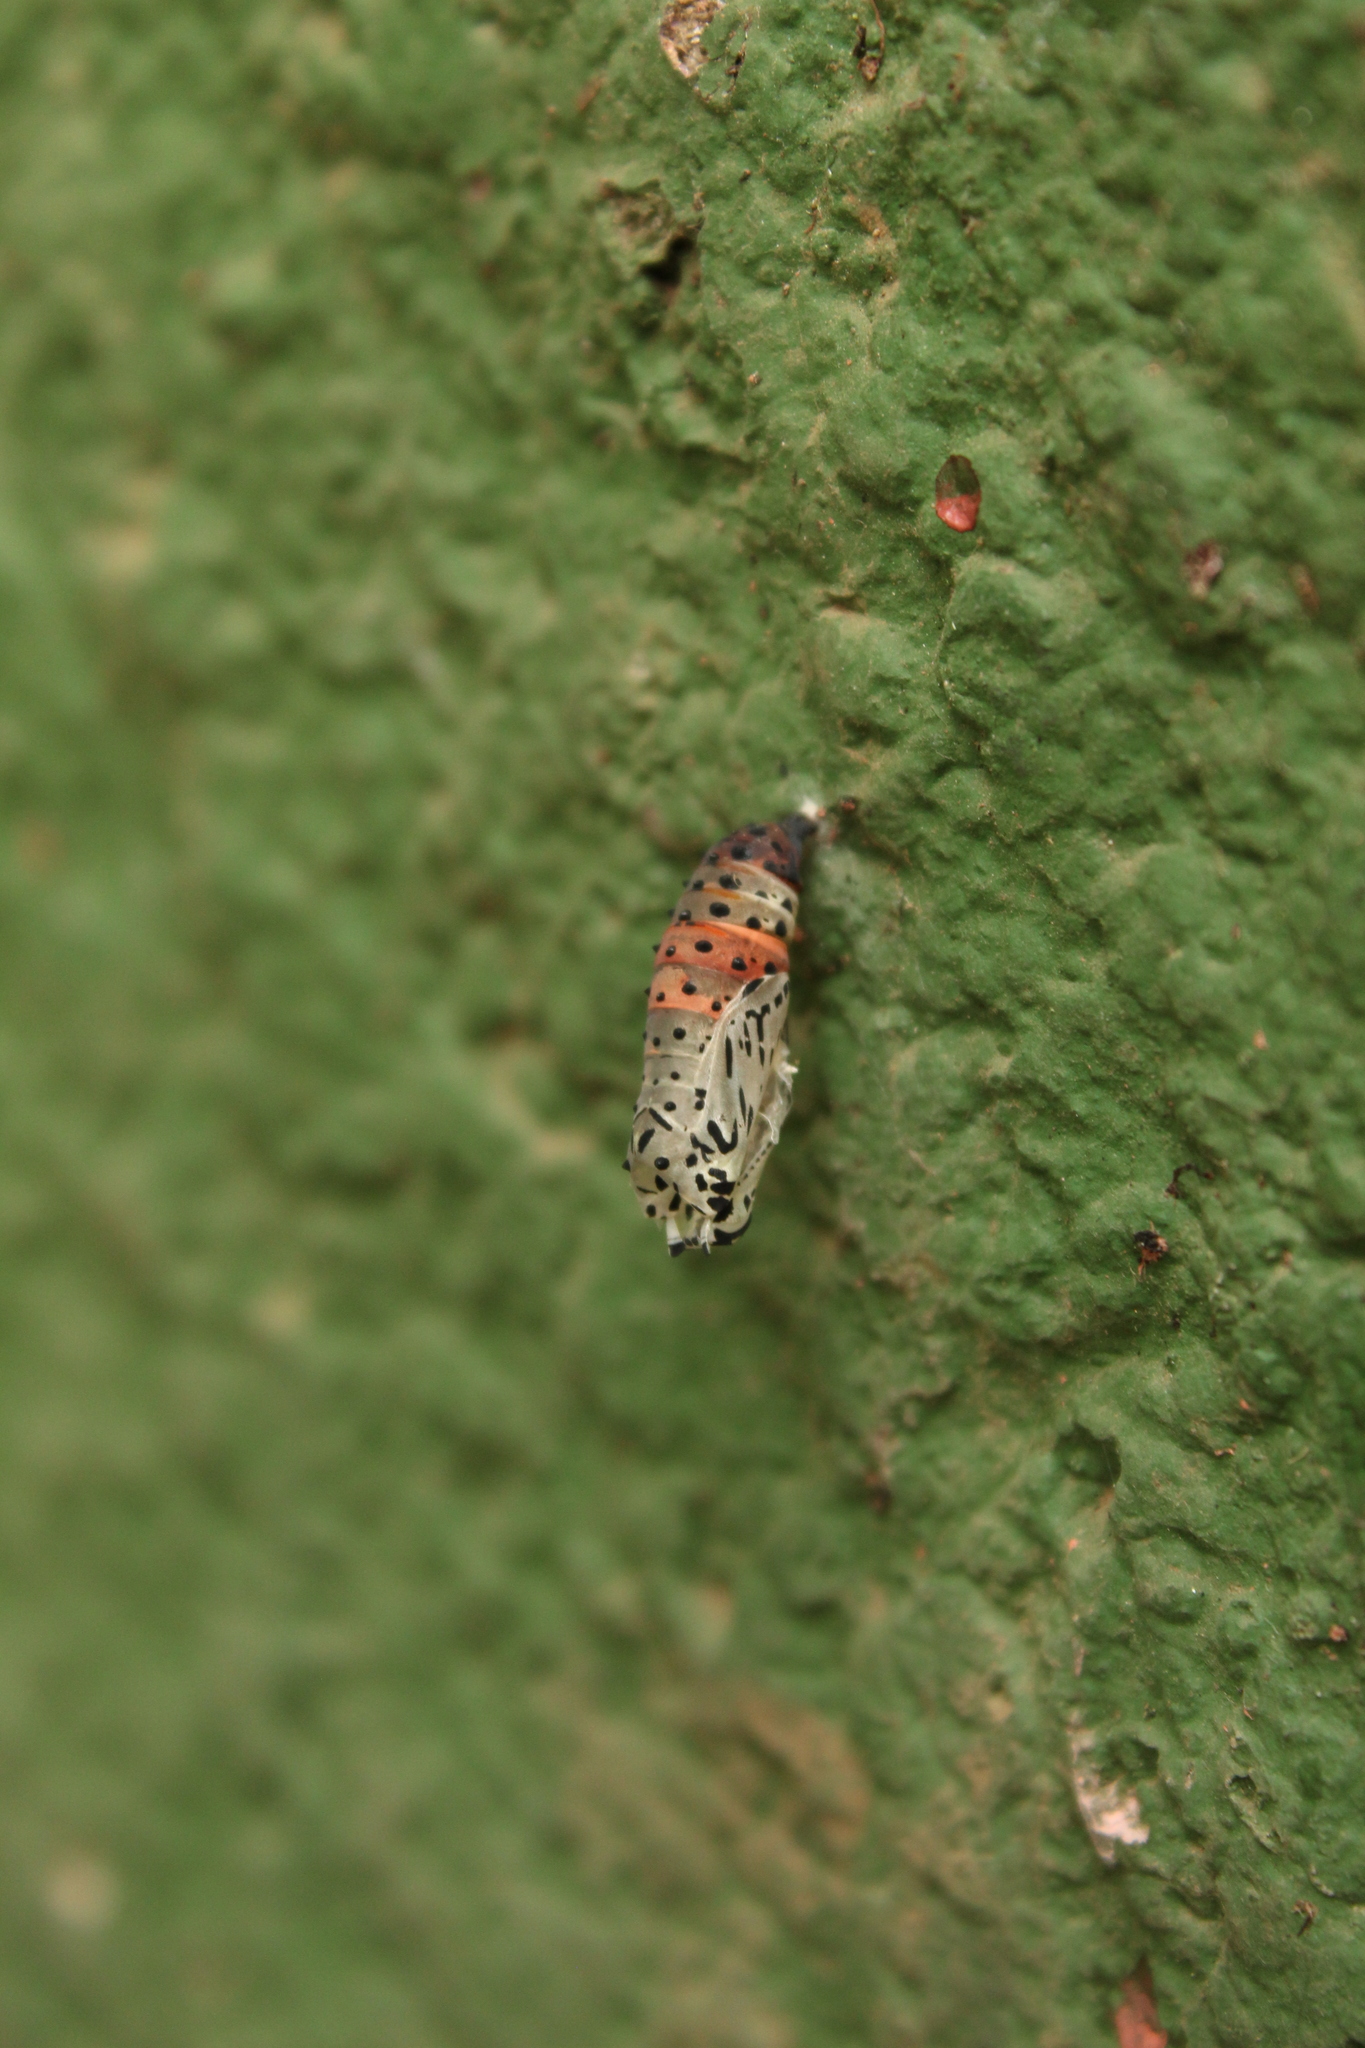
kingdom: Animalia
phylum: Arthropoda
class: Insecta
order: Lepidoptera
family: Nymphalidae
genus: Chlosyne
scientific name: Chlosyne janais
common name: Crimson patch
